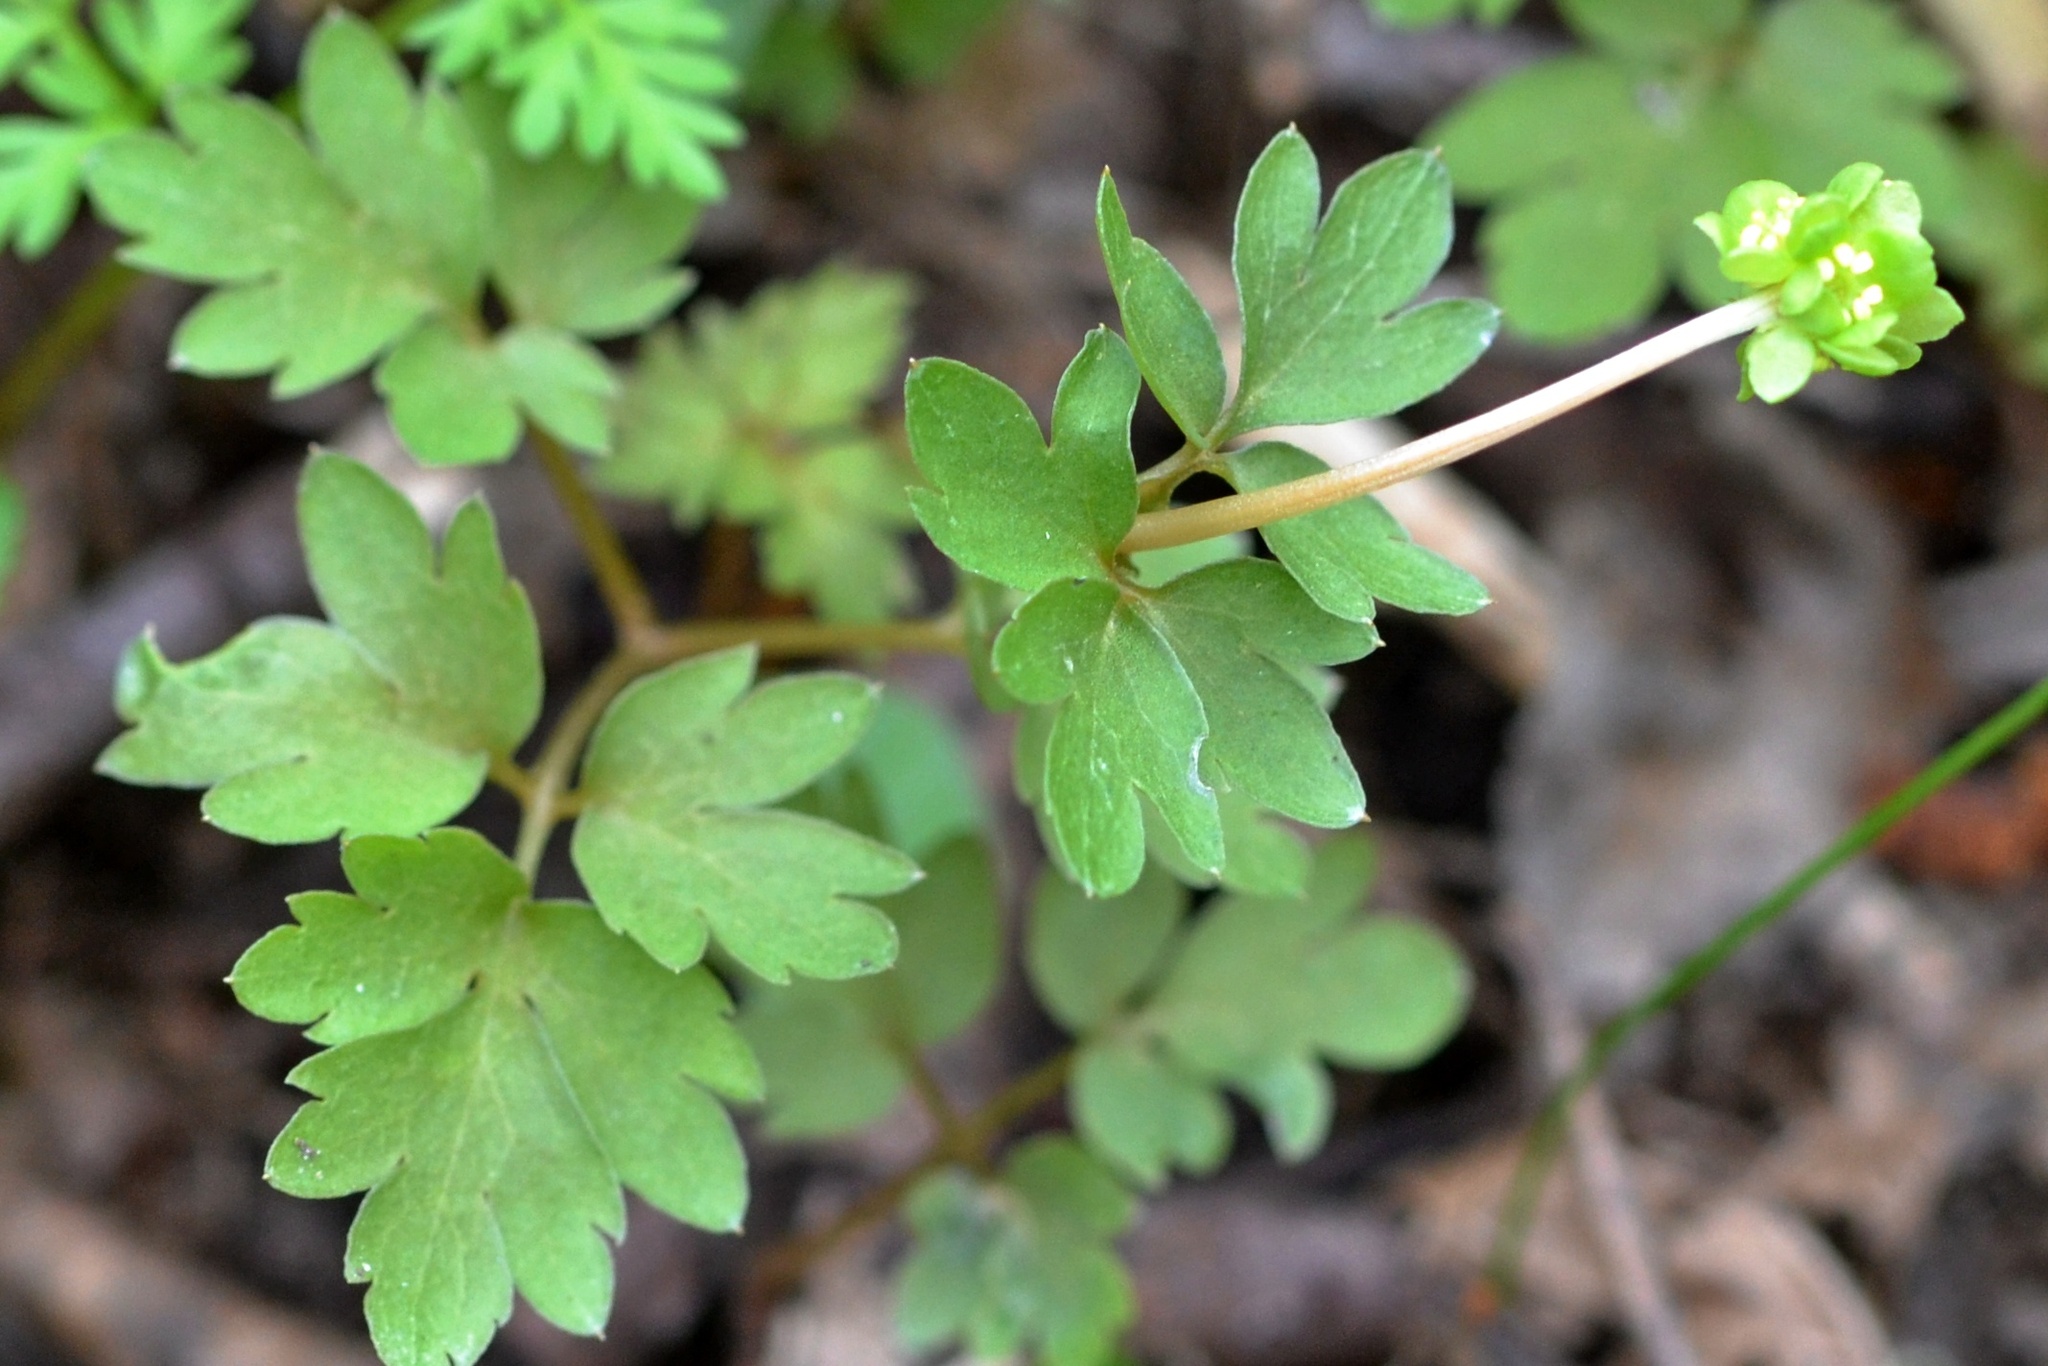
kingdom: Plantae
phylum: Tracheophyta
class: Magnoliopsida
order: Dipsacales
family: Viburnaceae
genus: Adoxa
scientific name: Adoxa moschatellina
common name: Moschatel
